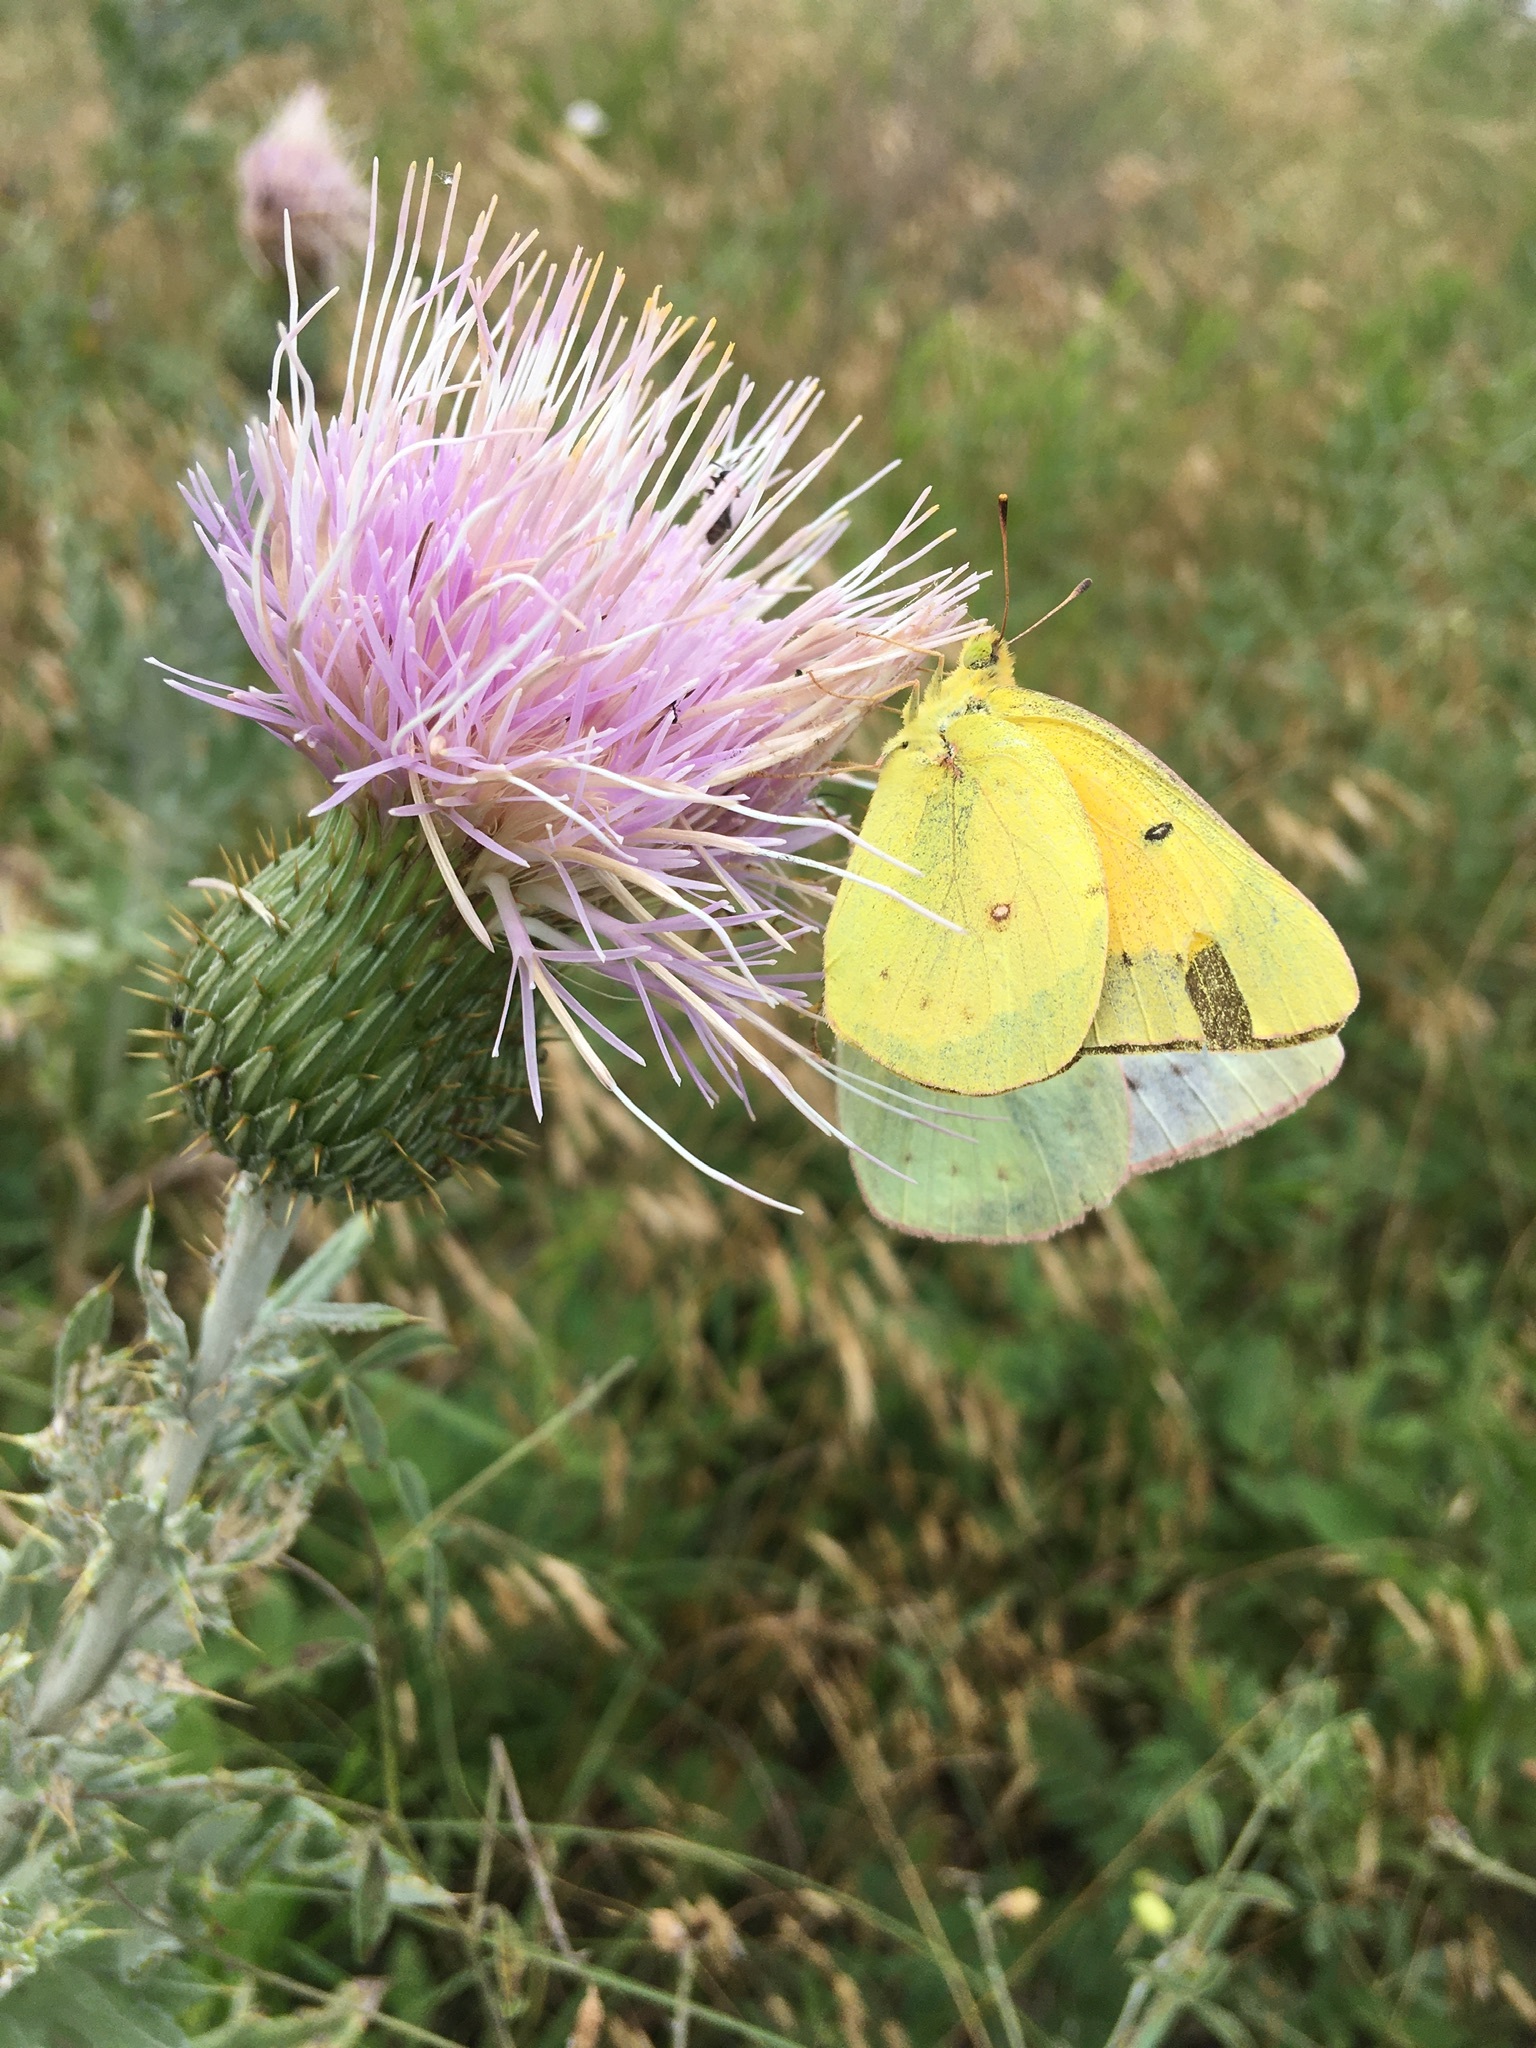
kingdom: Animalia
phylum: Arthropoda
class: Insecta
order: Lepidoptera
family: Pieridae
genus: Colias
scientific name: Colias eurytheme
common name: Alfalfa butterfly
